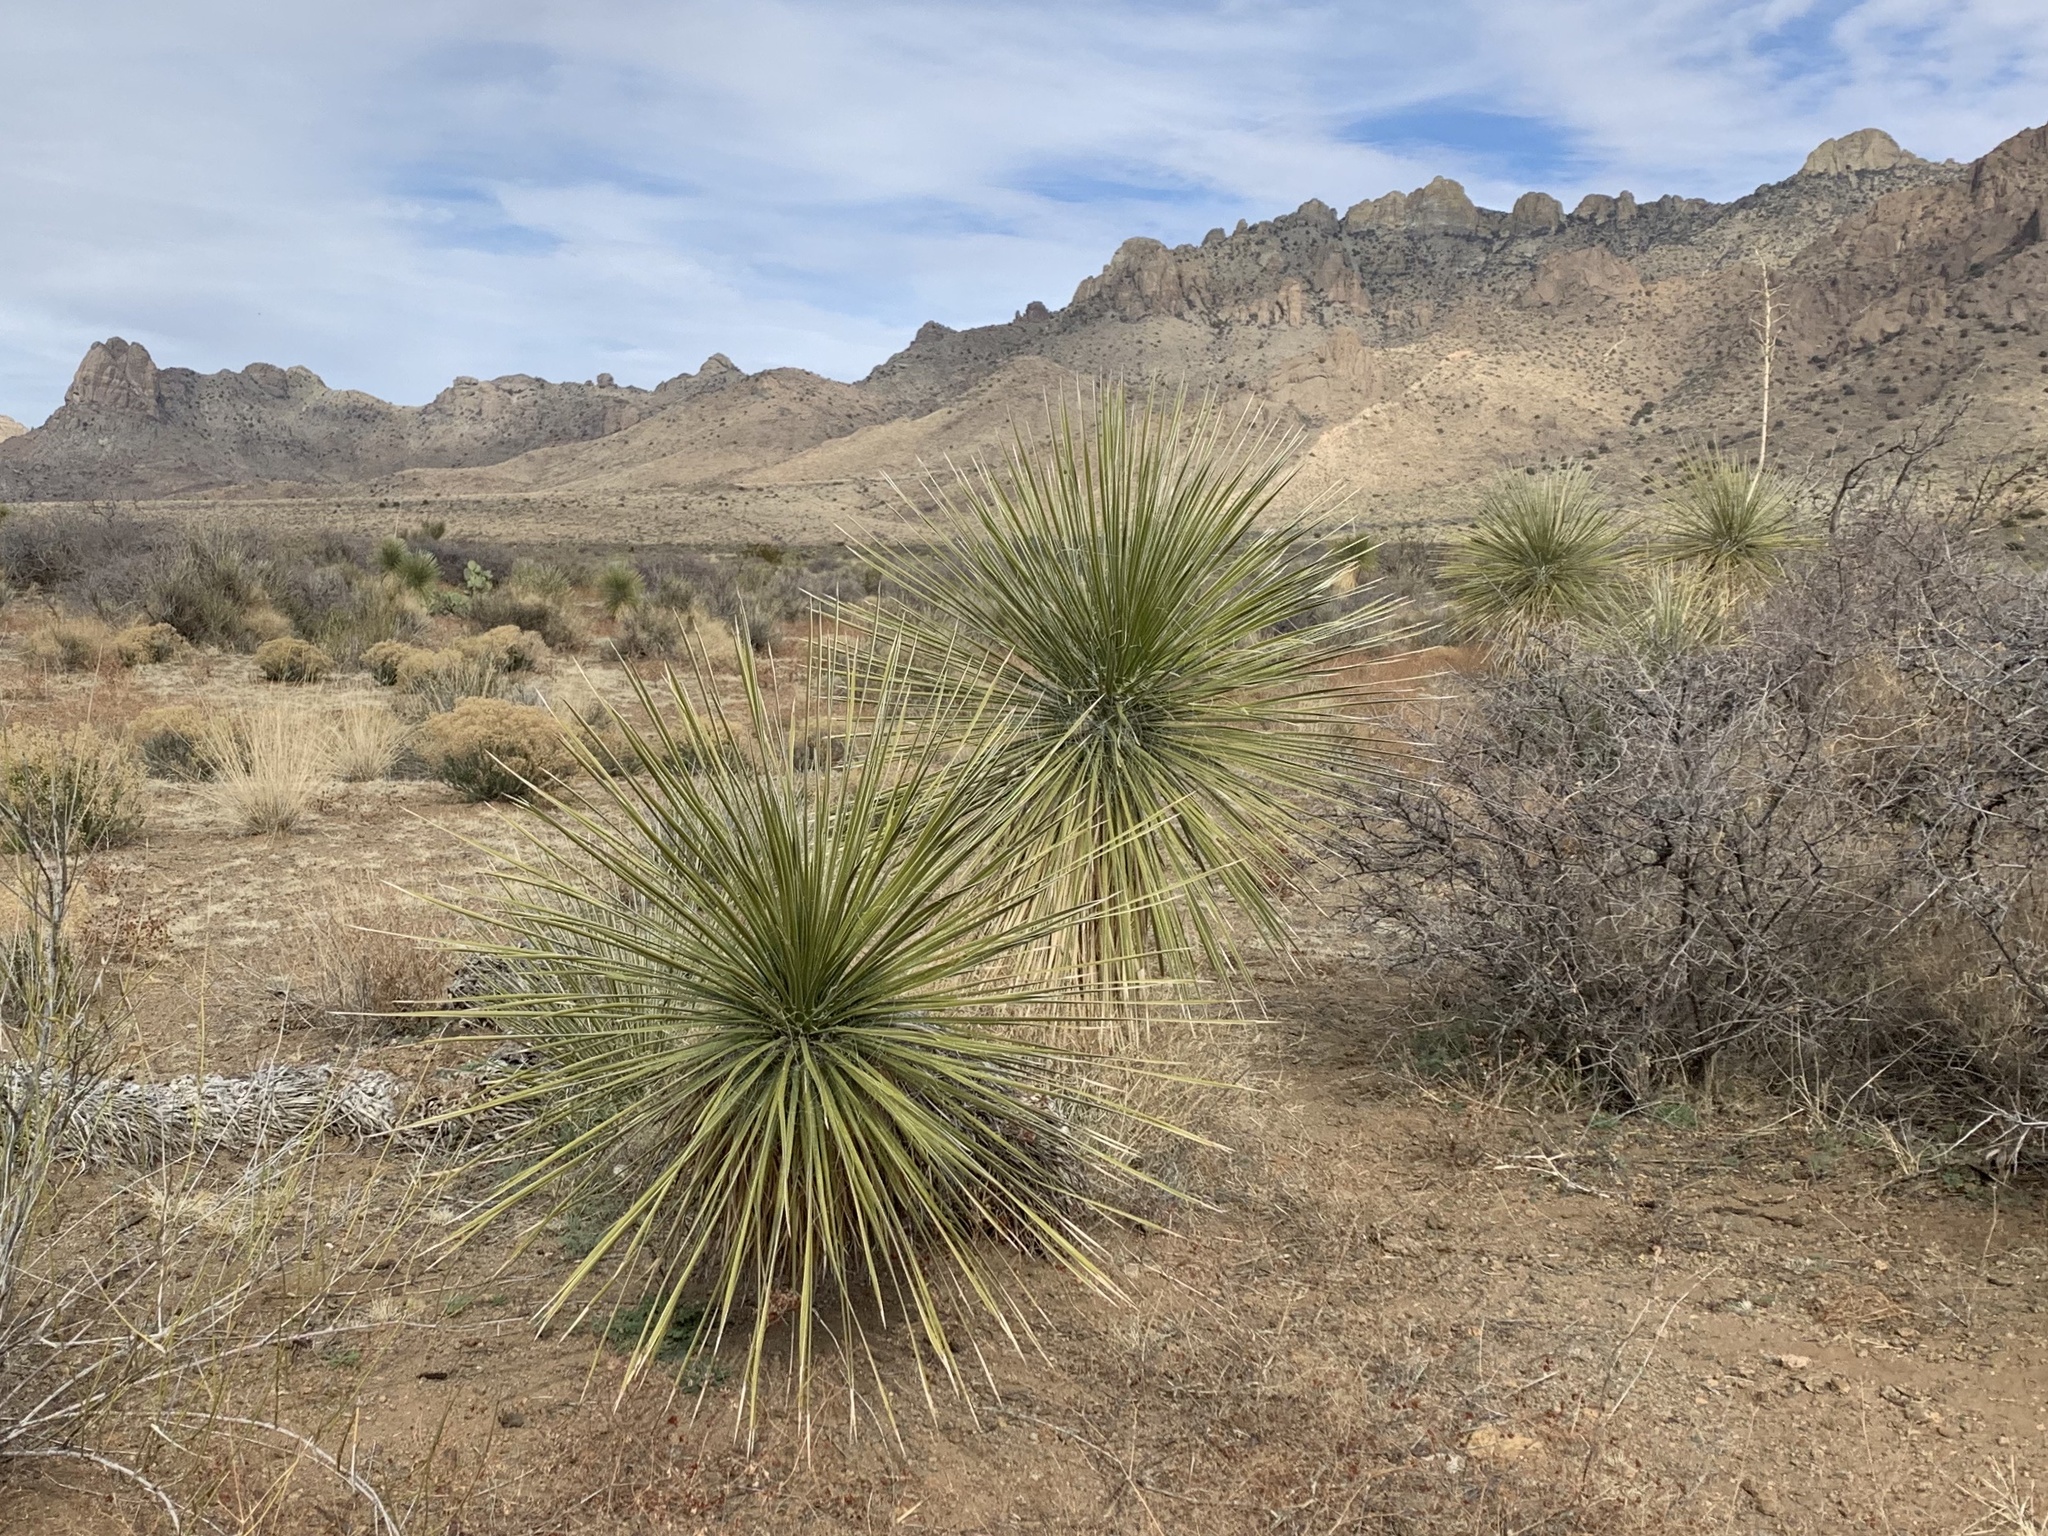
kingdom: Plantae
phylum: Tracheophyta
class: Liliopsida
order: Asparagales
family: Asparagaceae
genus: Yucca
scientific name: Yucca elata
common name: Palmella
